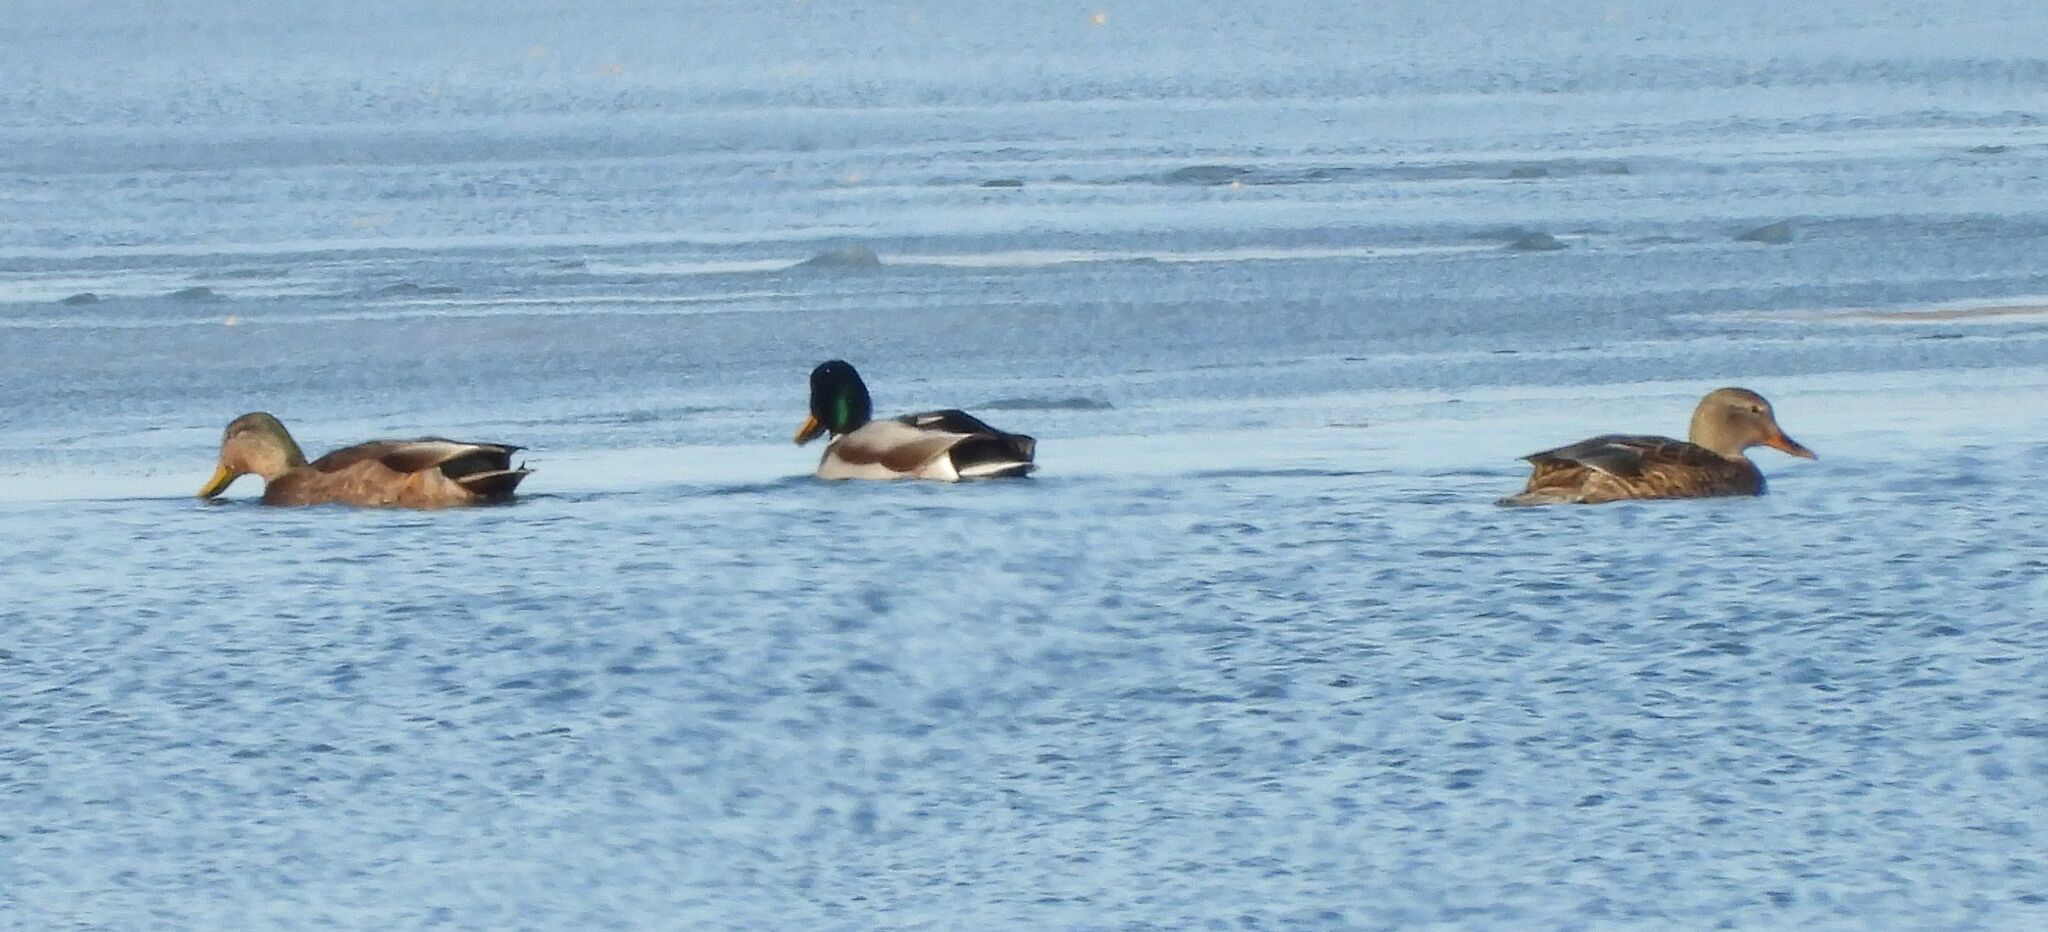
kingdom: Animalia
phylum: Chordata
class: Aves
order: Anseriformes
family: Anatidae
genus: Anas
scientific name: Anas
